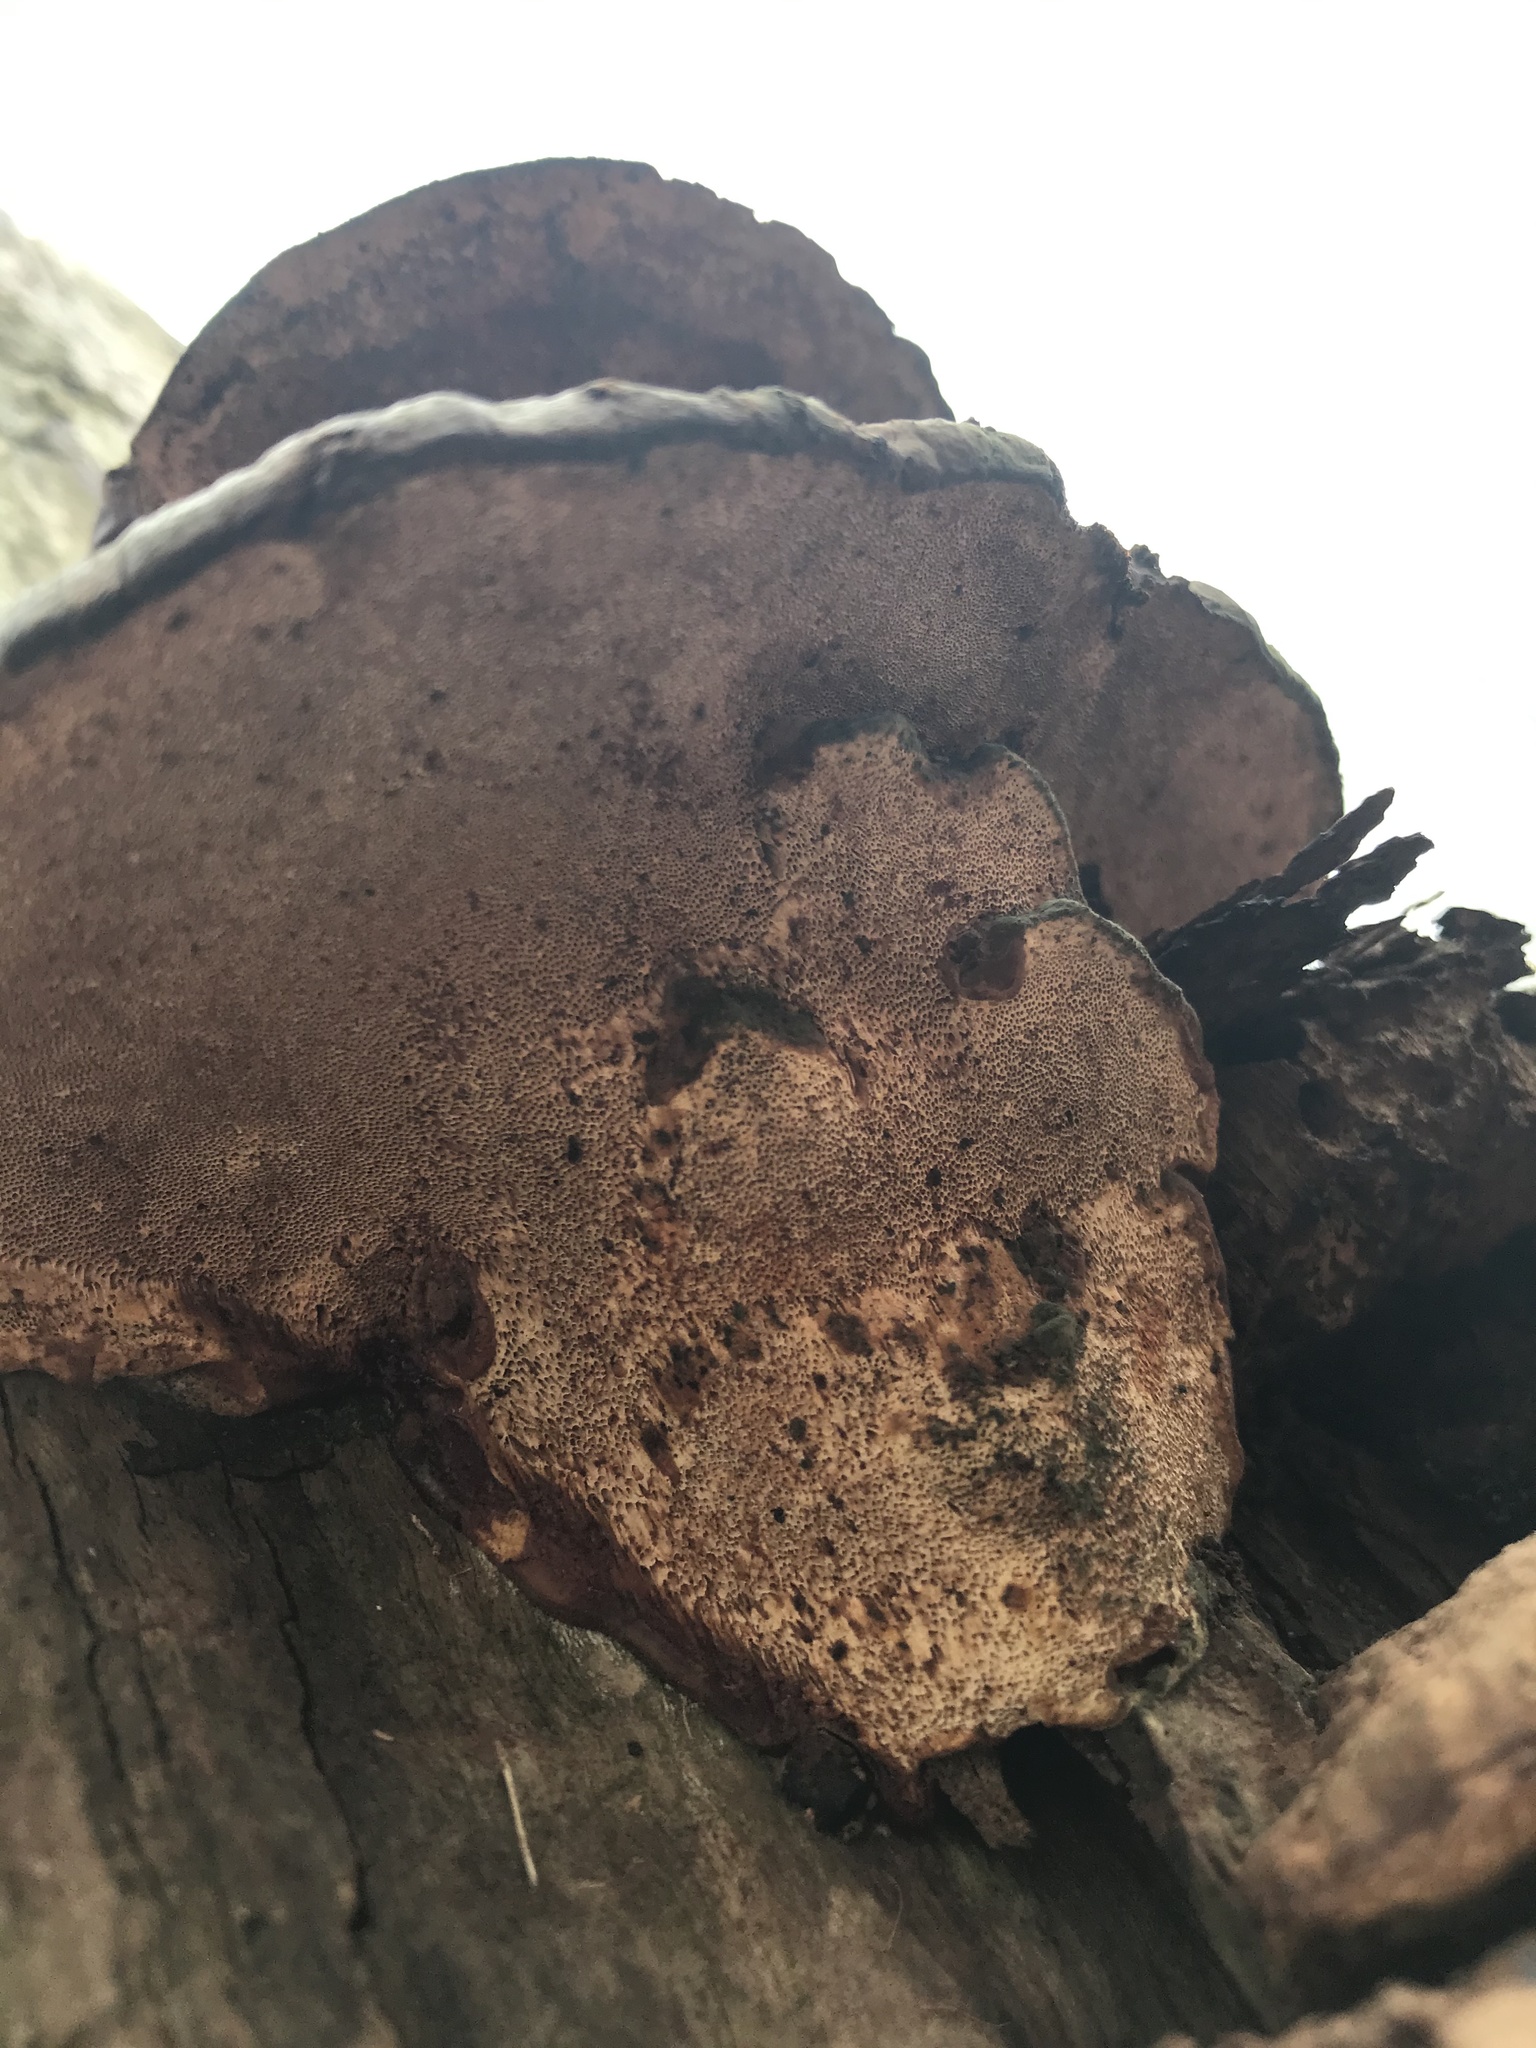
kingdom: Fungi
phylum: Basidiomycota
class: Agaricomycetes
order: Polyporales
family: Polyporaceae
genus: Ganoderma
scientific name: Ganoderma resinaceum
